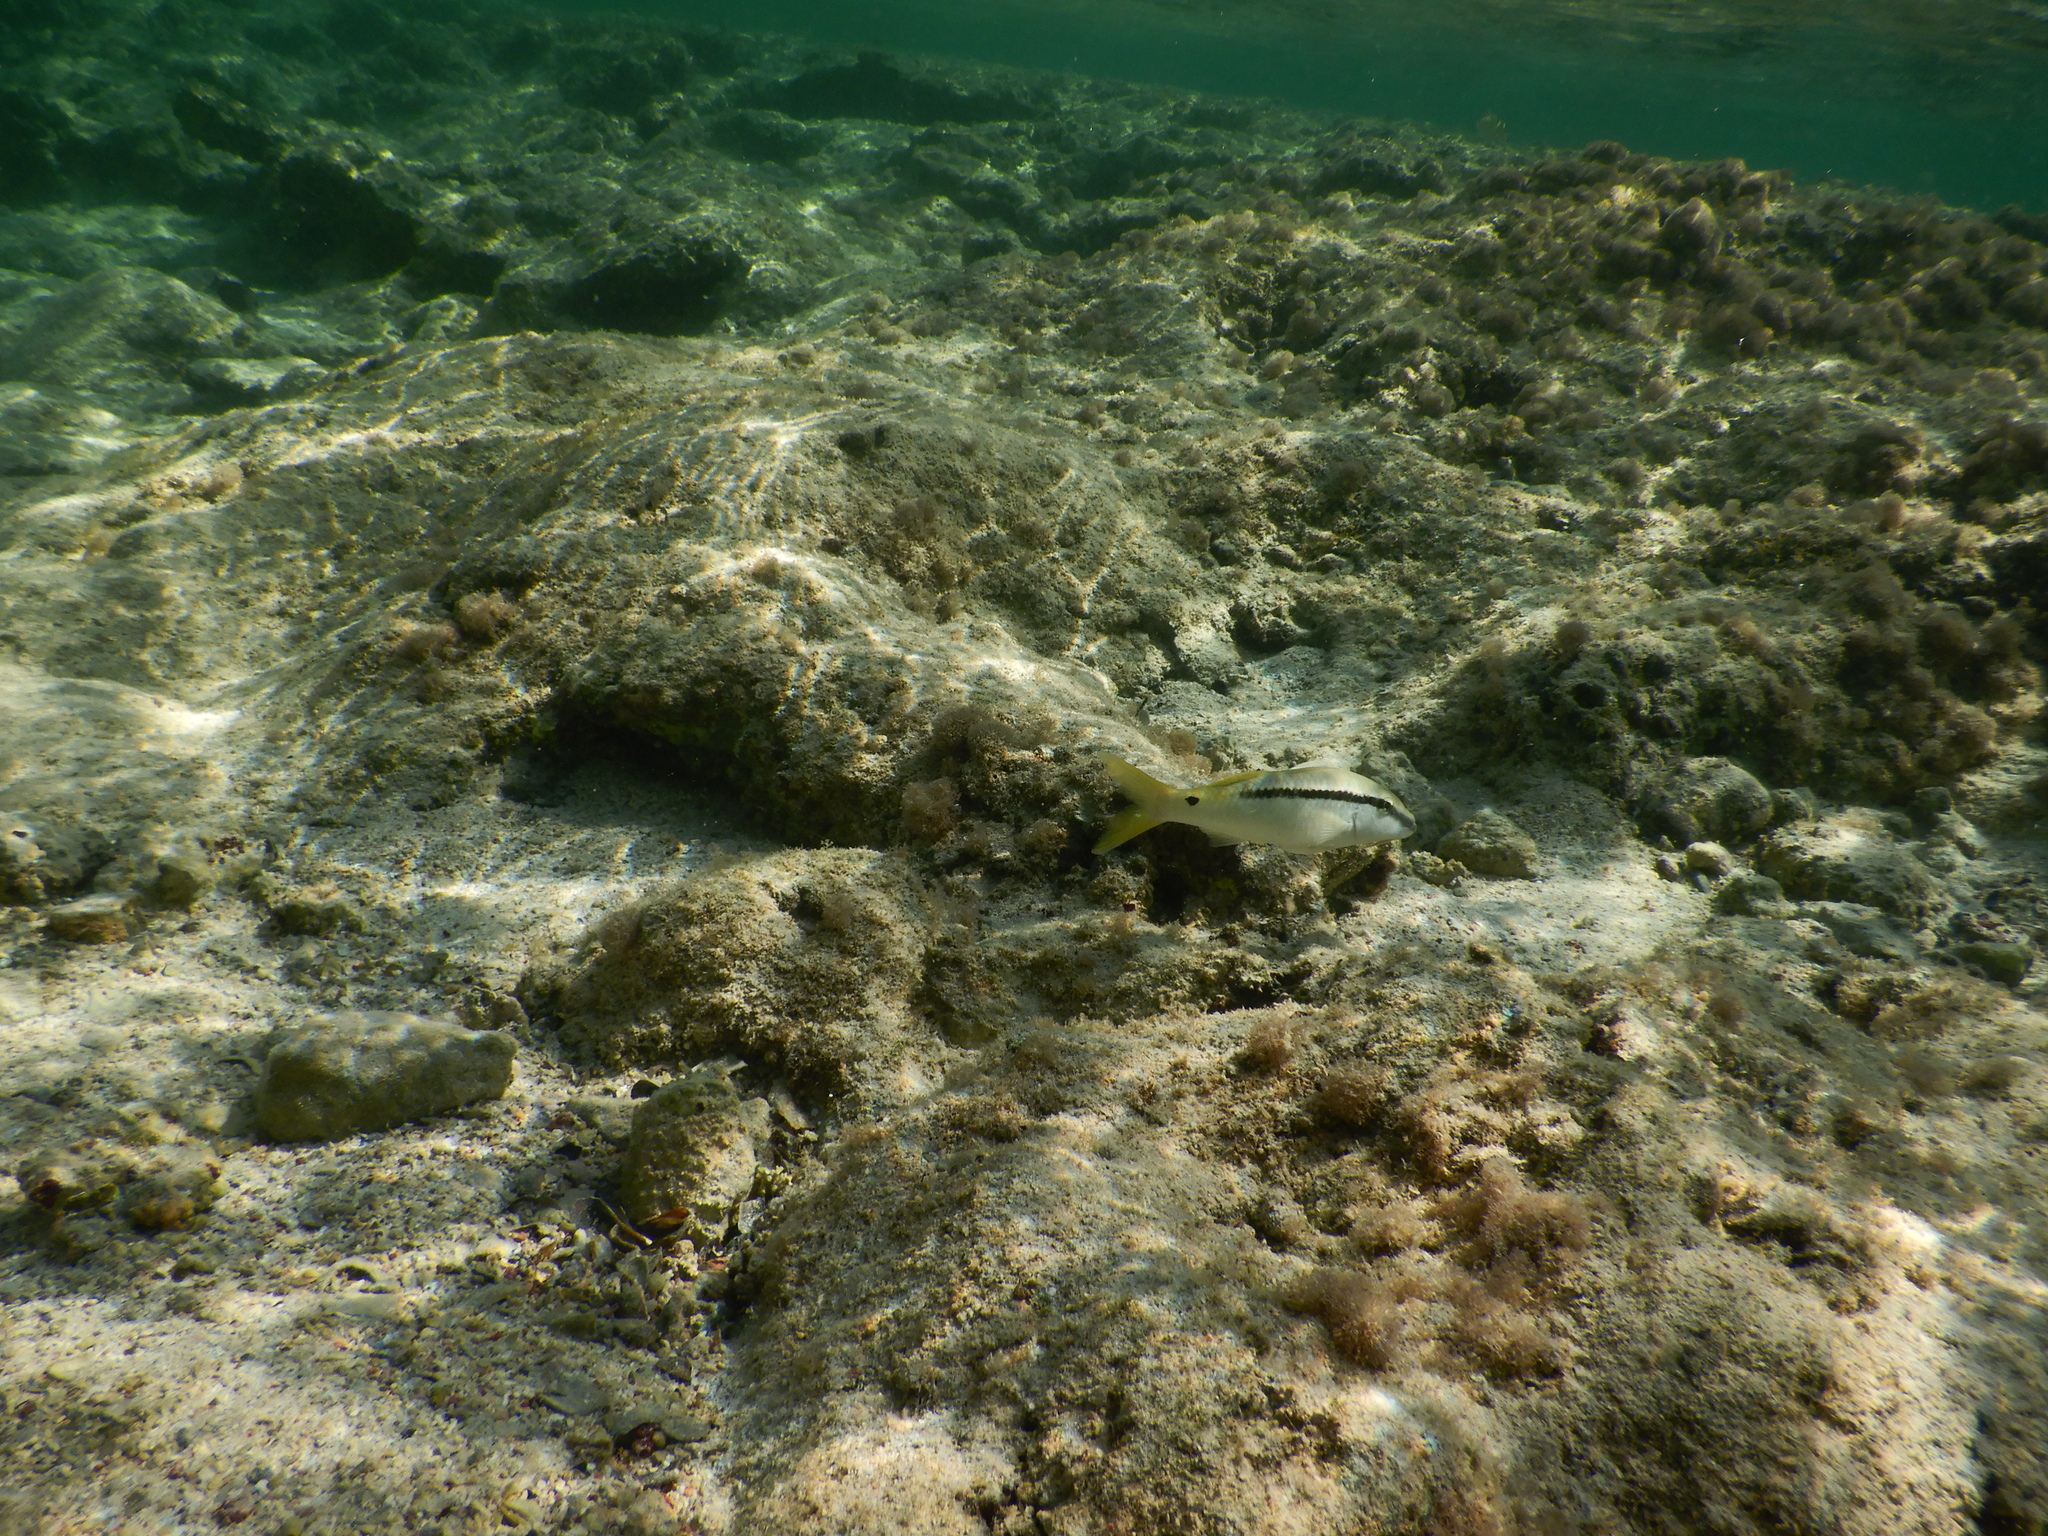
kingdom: Animalia
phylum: Chordata
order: Perciformes
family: Mullidae
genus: Parupeneus
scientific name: Parupeneus forsskali
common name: Red sea goatfish
